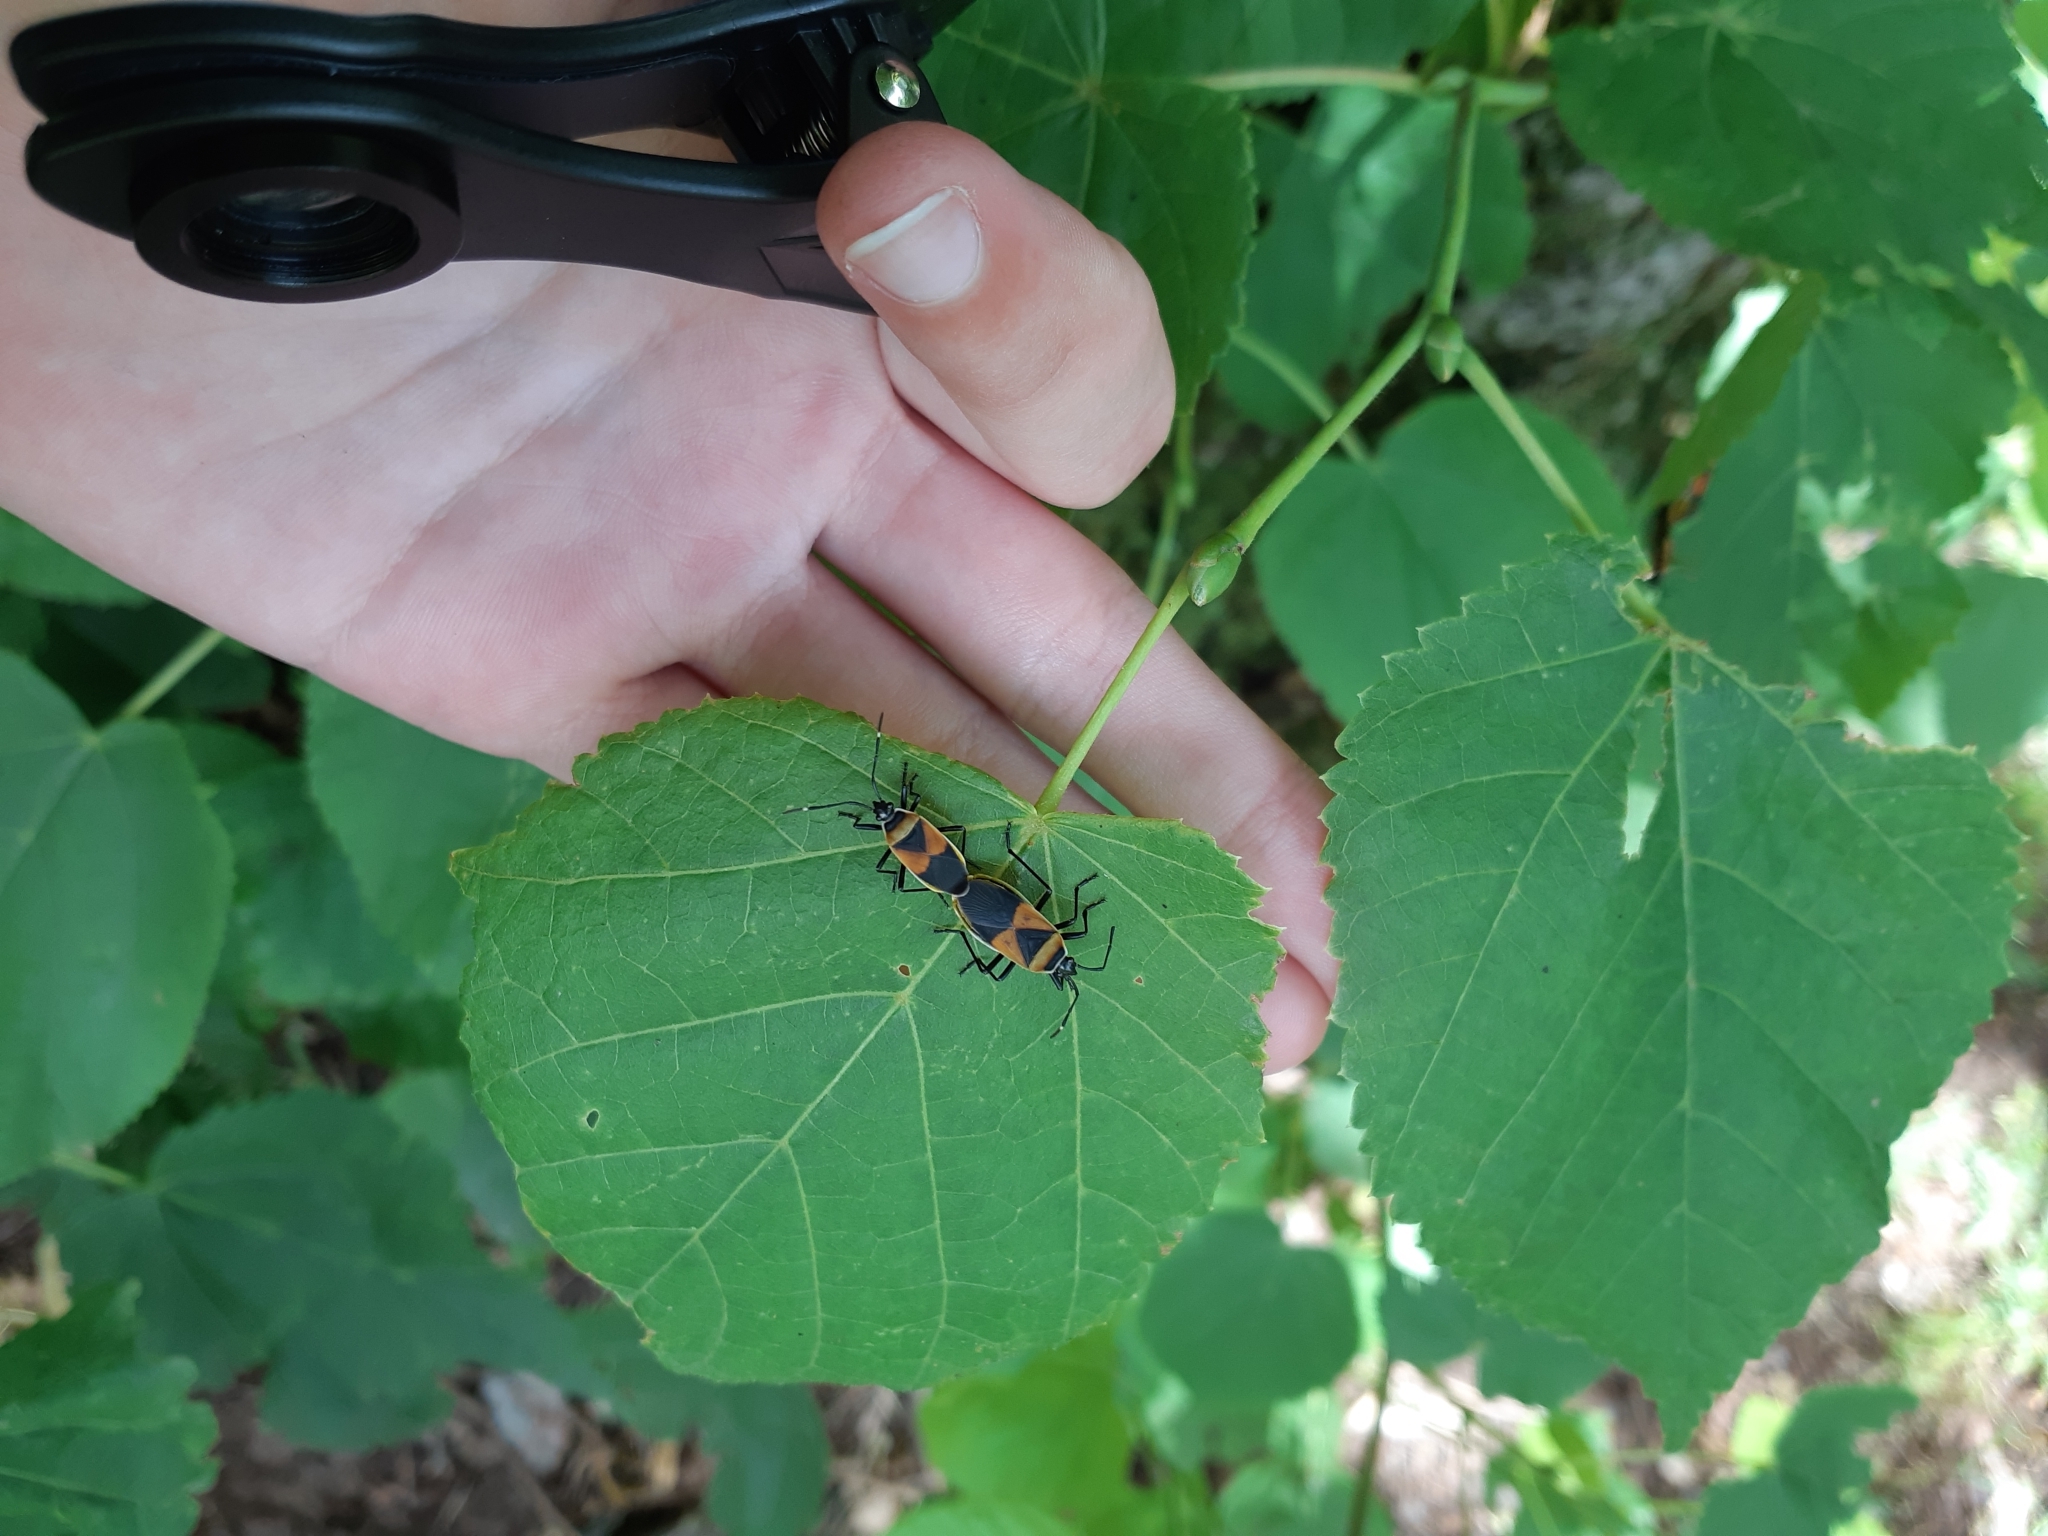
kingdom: Animalia
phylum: Arthropoda
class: Insecta
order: Hemiptera
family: Pyrrhocoridae
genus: Dindymus
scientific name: Dindymus
